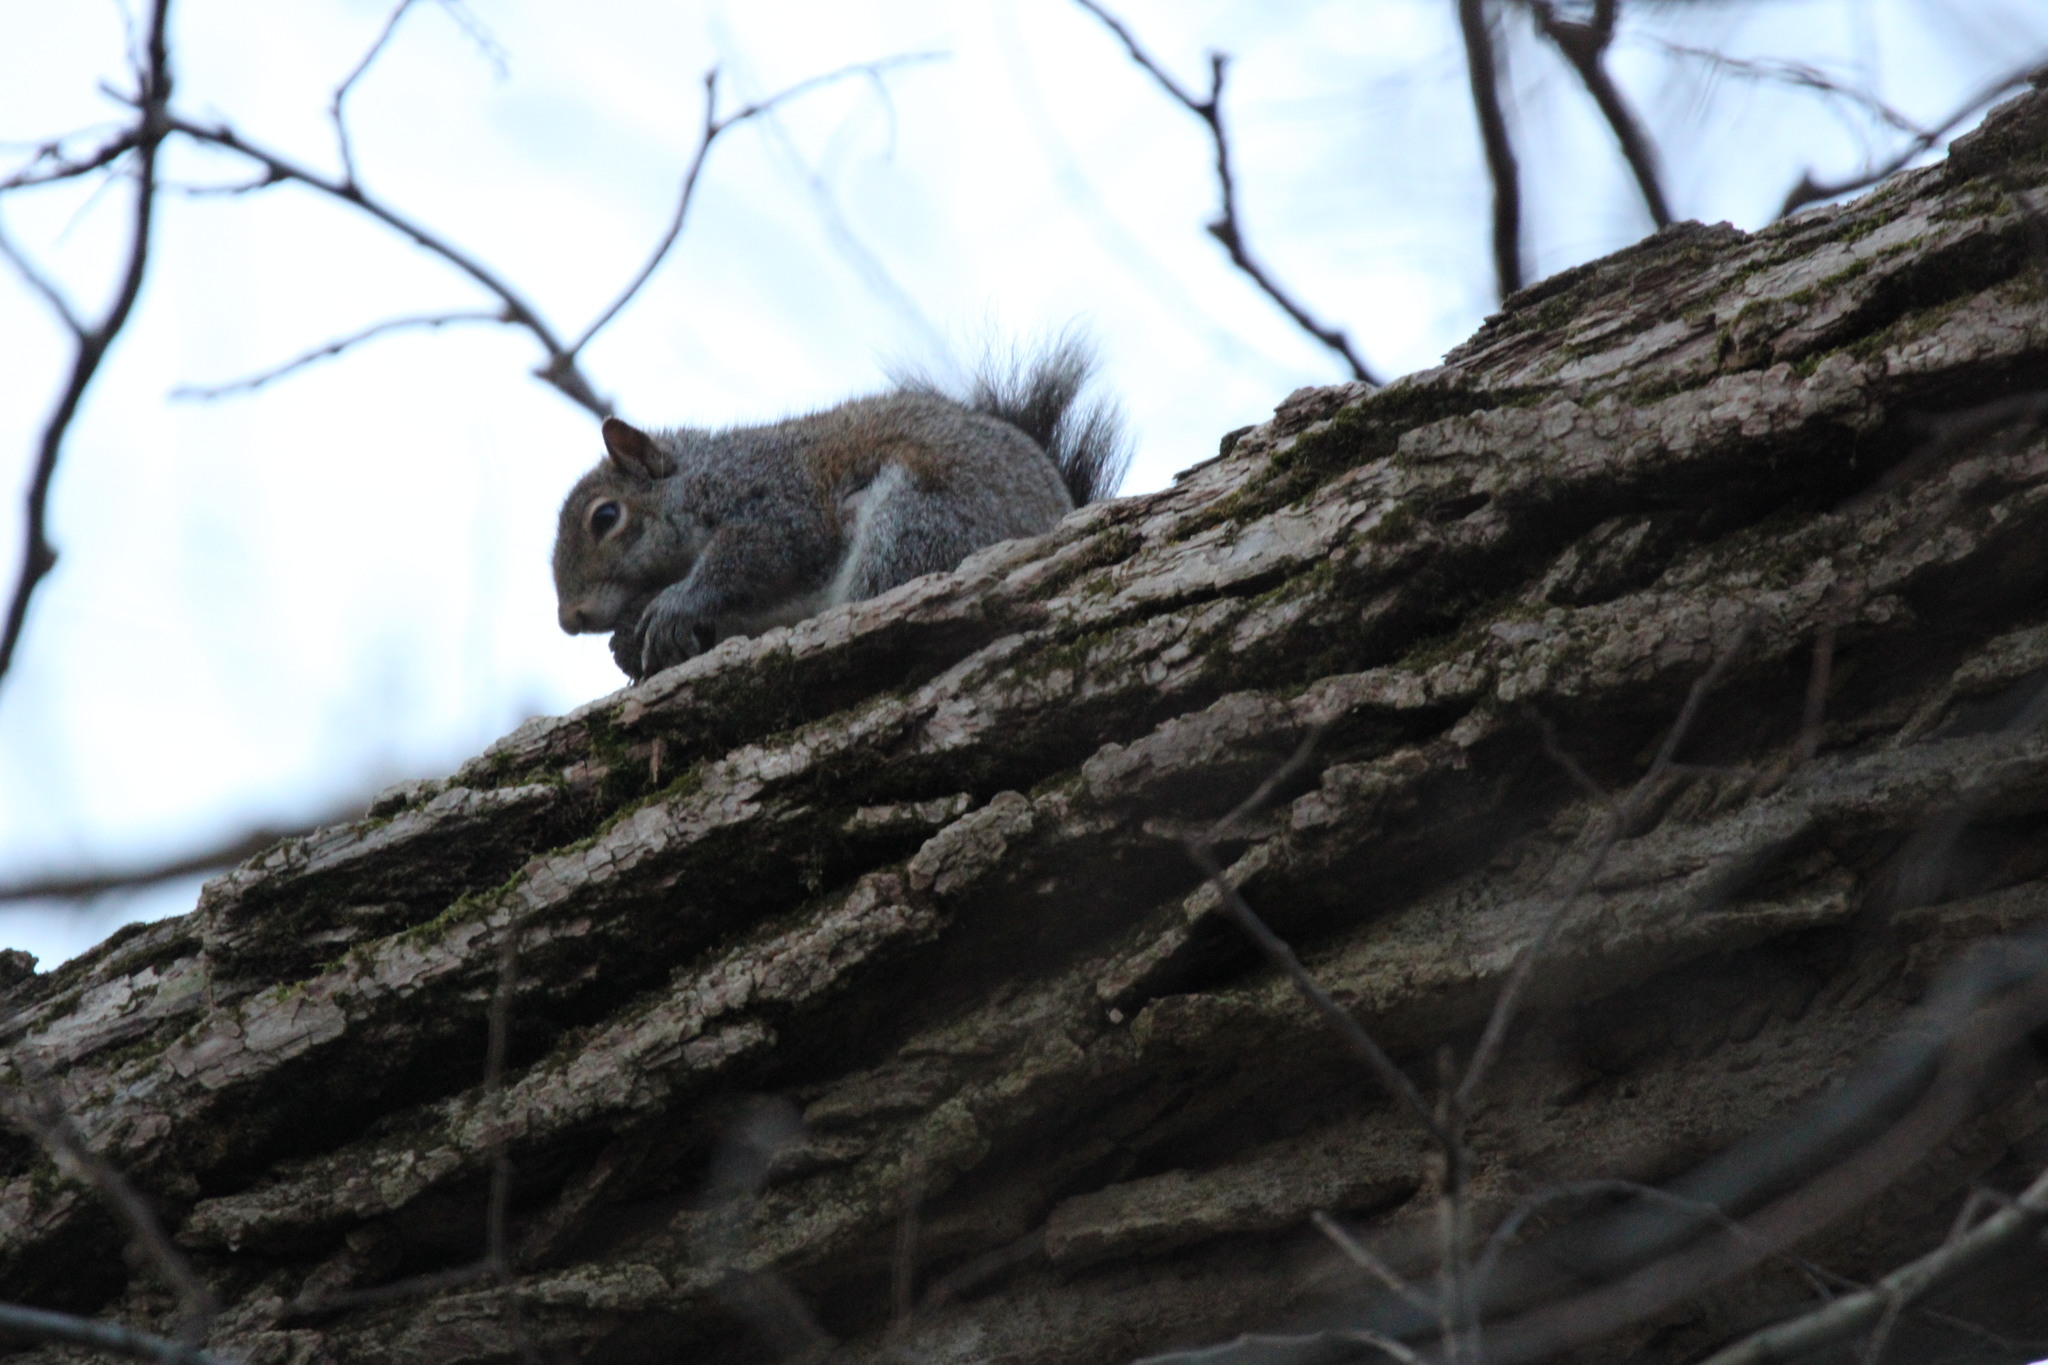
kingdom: Animalia
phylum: Chordata
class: Mammalia
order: Rodentia
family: Sciuridae
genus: Sciurus
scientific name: Sciurus carolinensis
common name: Eastern gray squirrel
